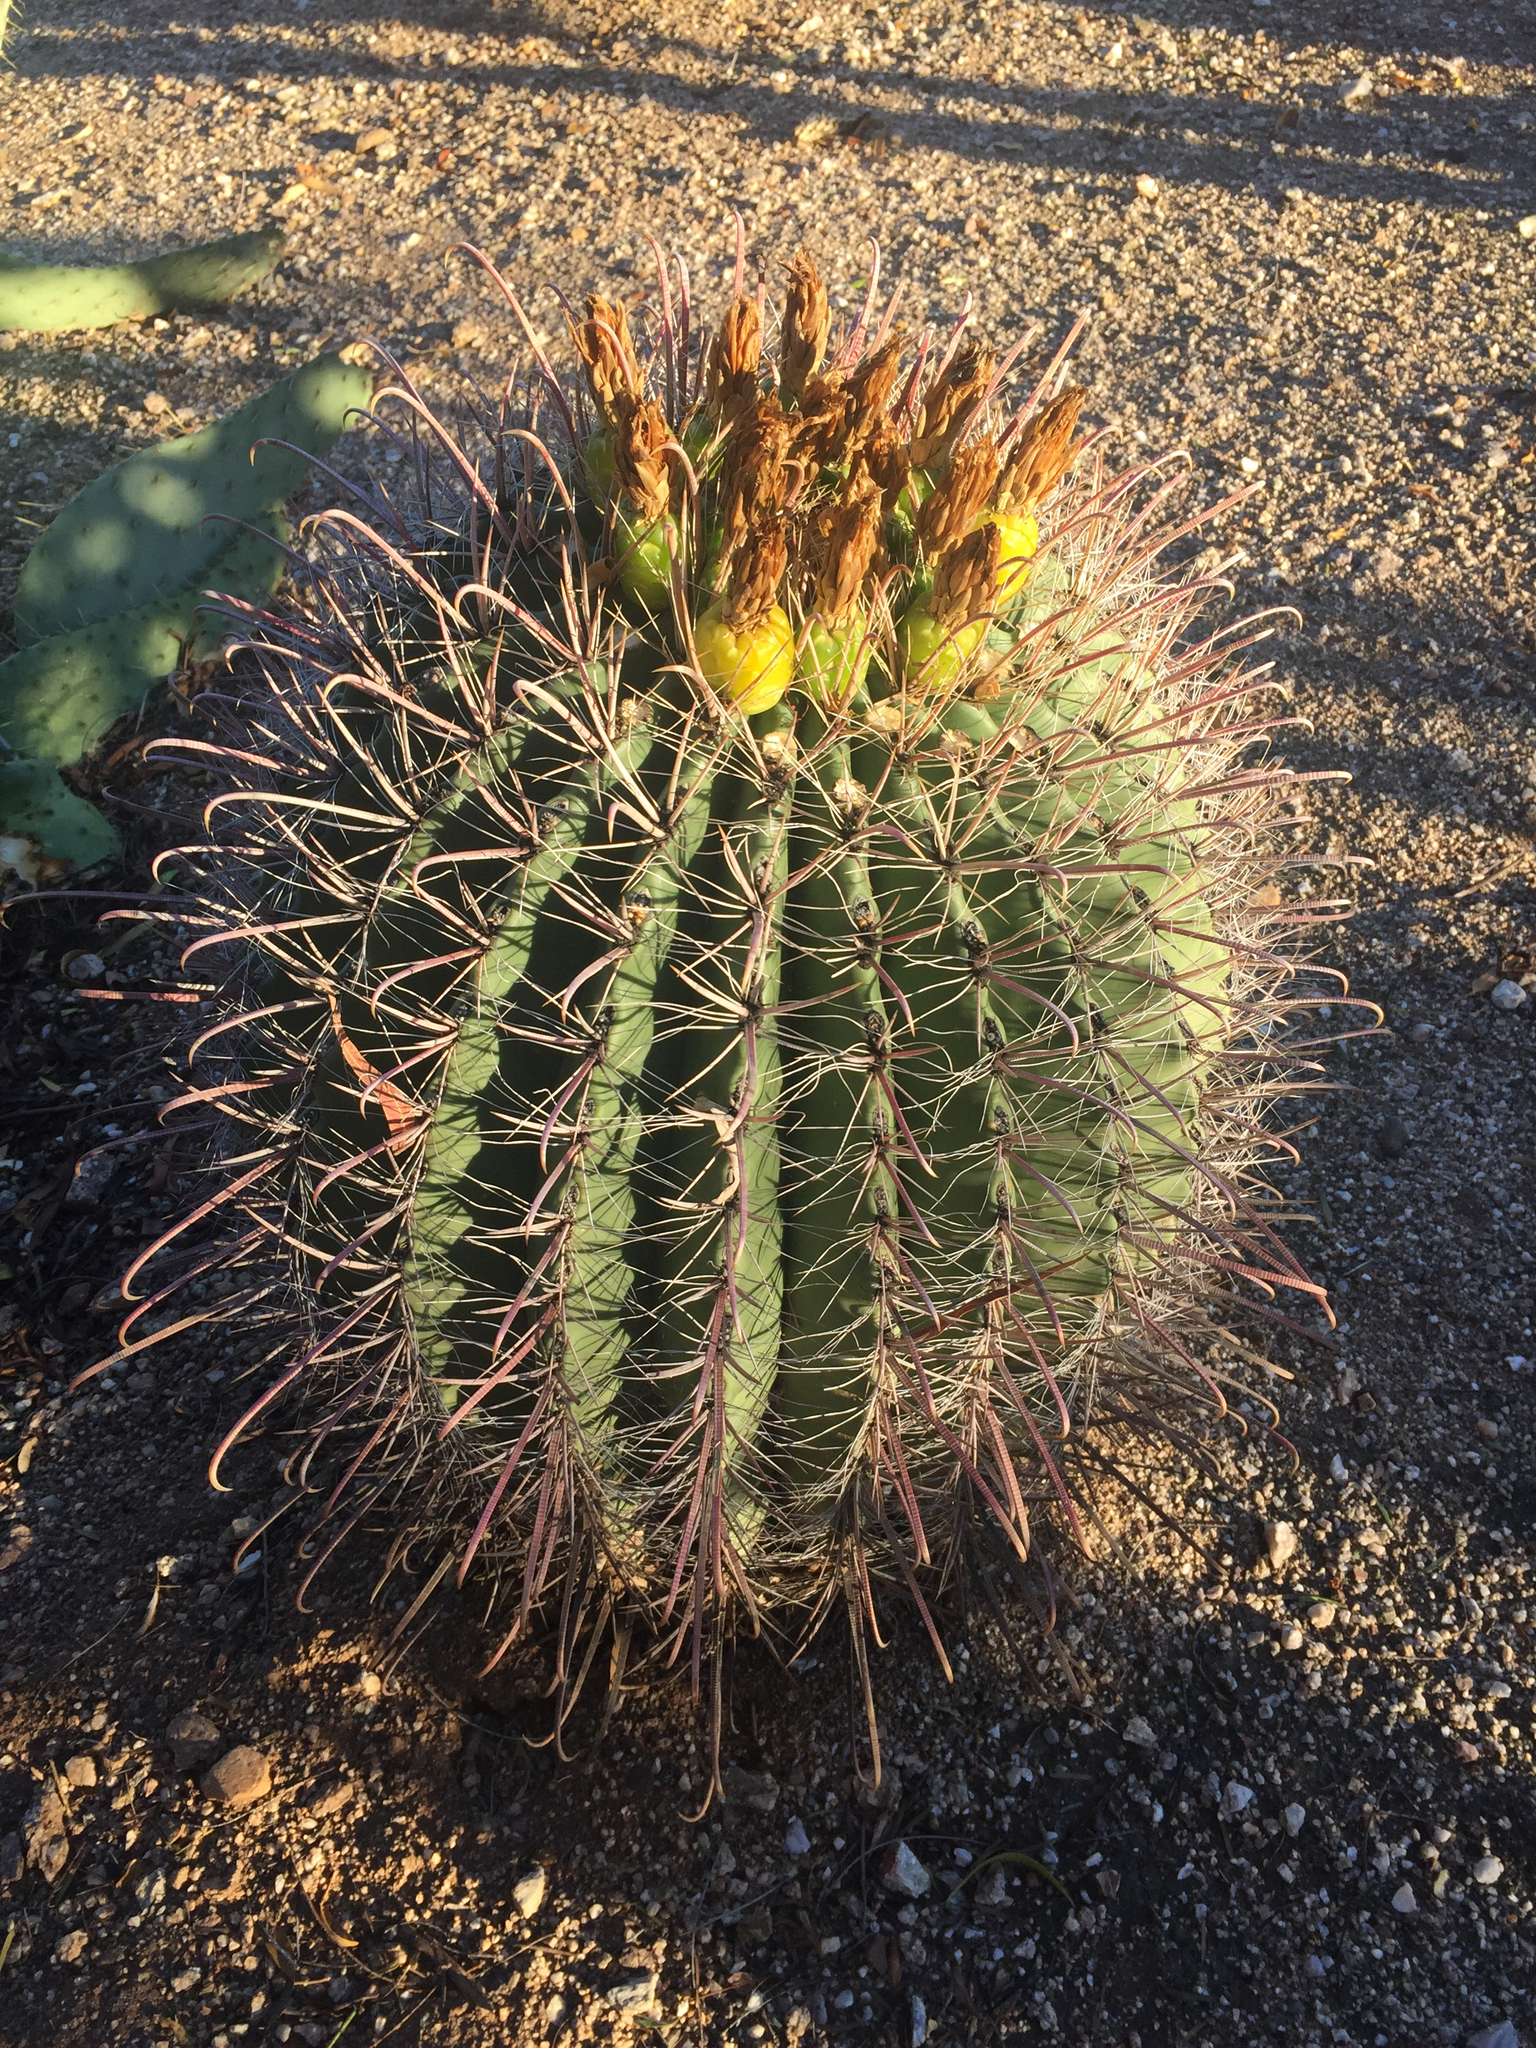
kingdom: Plantae
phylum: Tracheophyta
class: Magnoliopsida
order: Caryophyllales
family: Cactaceae
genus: Ferocactus
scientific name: Ferocactus wislizeni
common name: Candy barrel cactus
